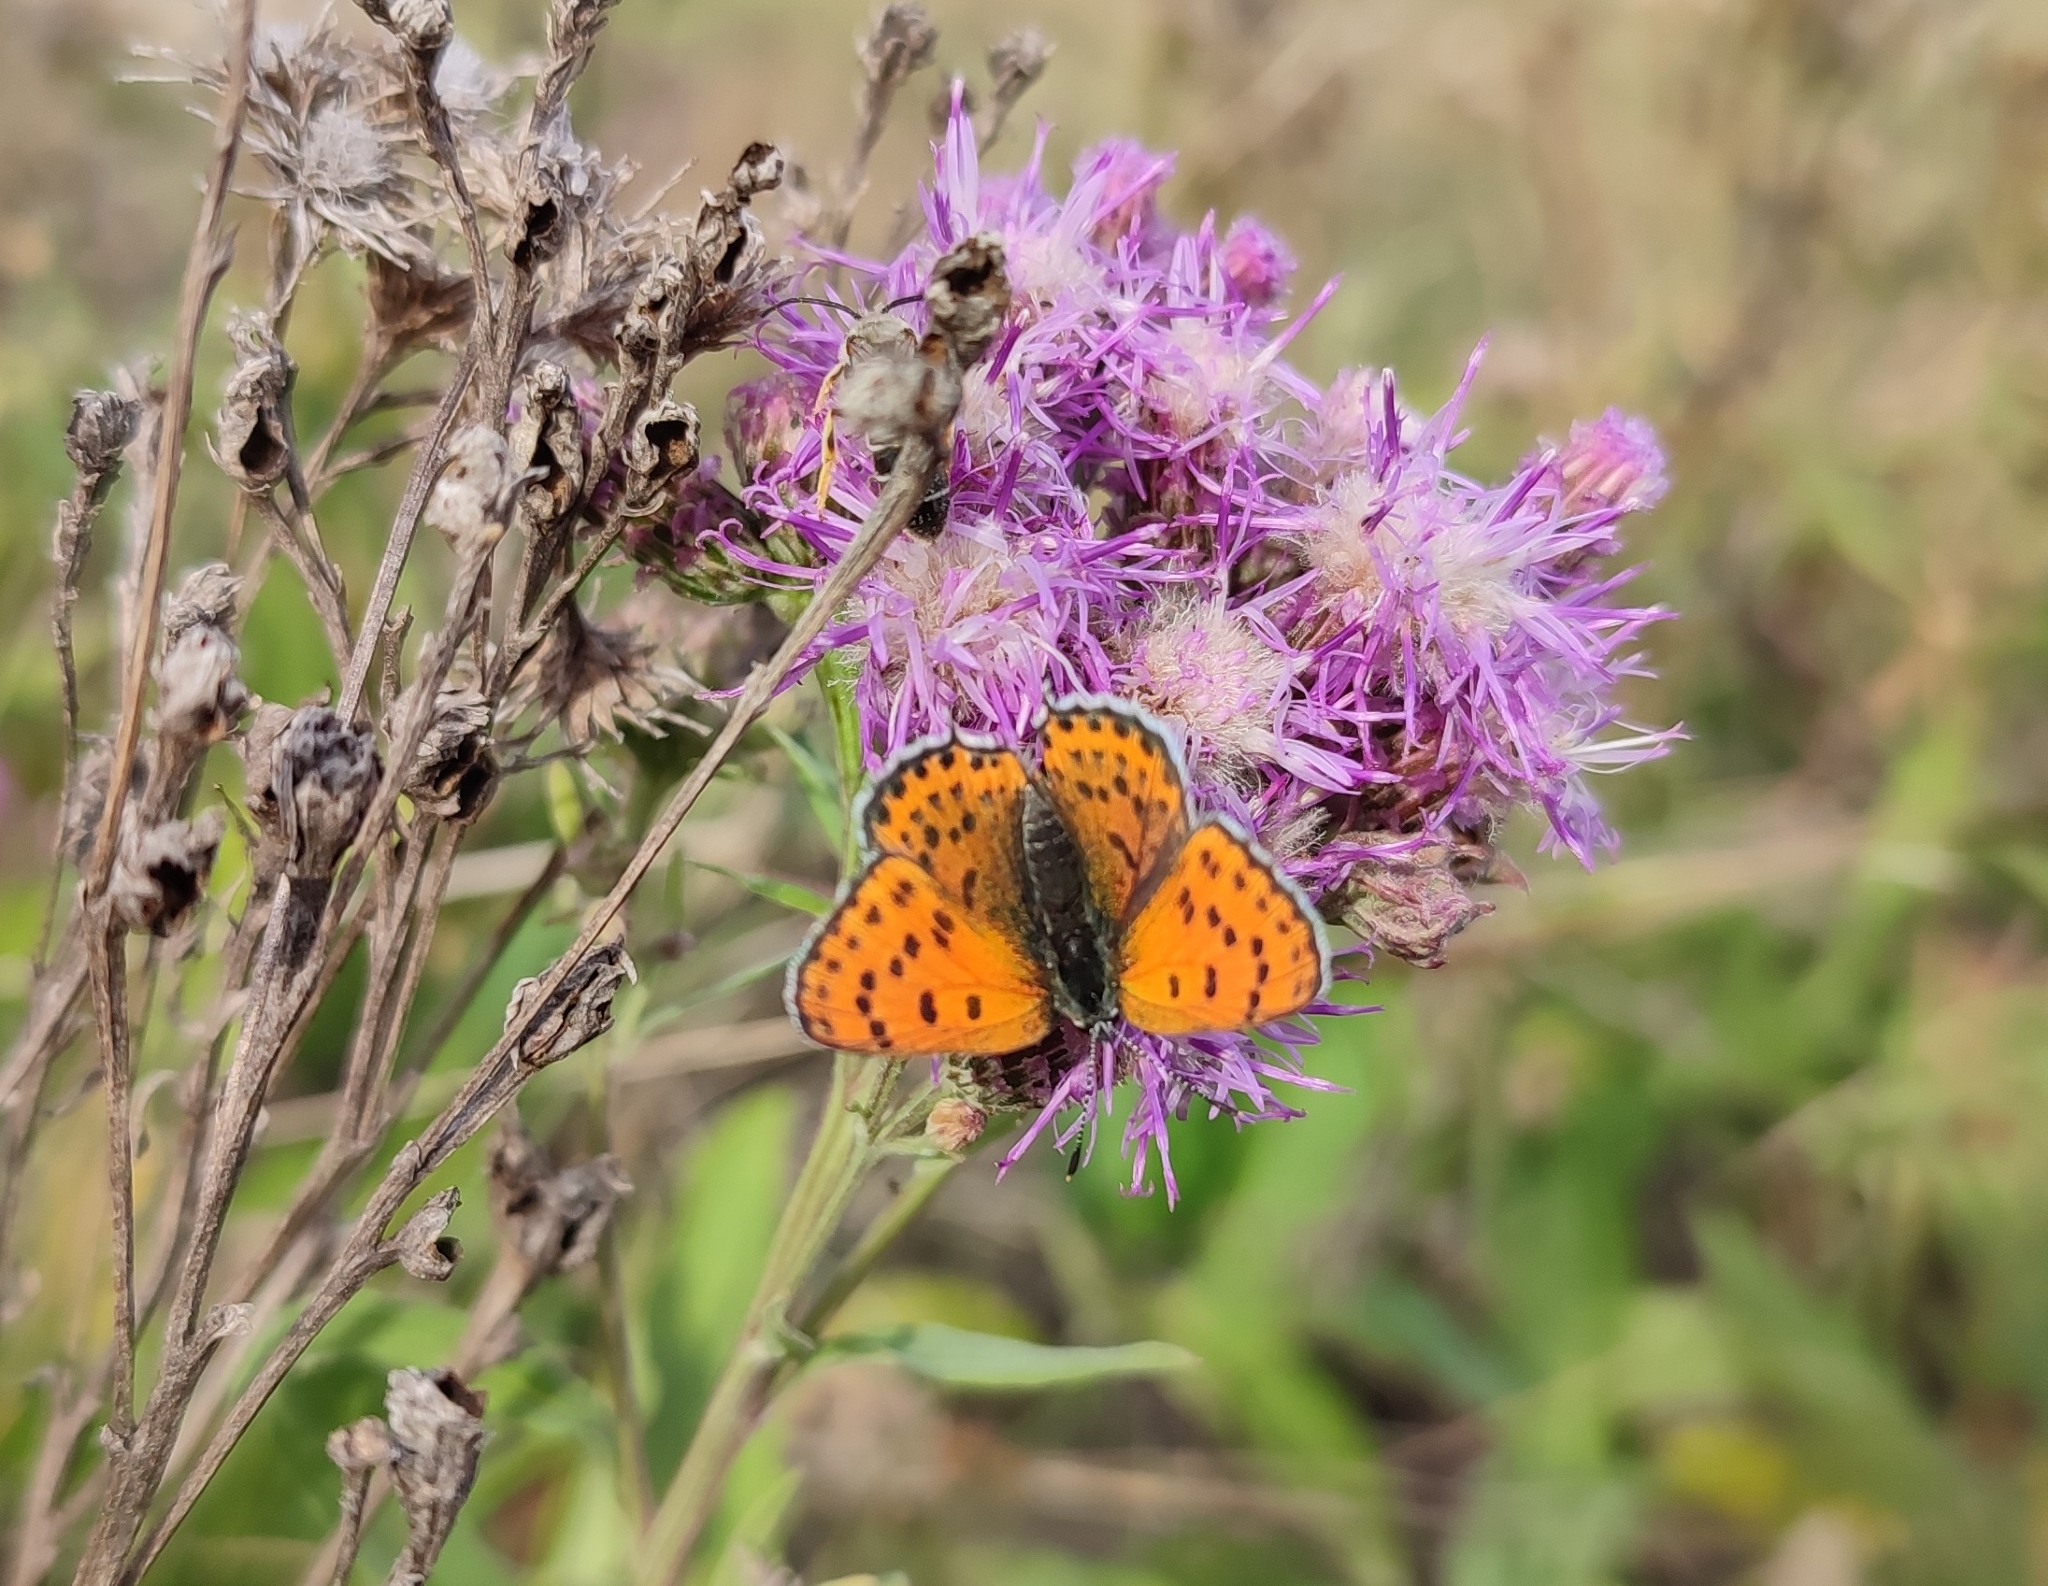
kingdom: Animalia
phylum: Arthropoda
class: Insecta
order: Lepidoptera
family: Lycaenidae
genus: Thersamonia
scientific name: Thersamonia thersamon
